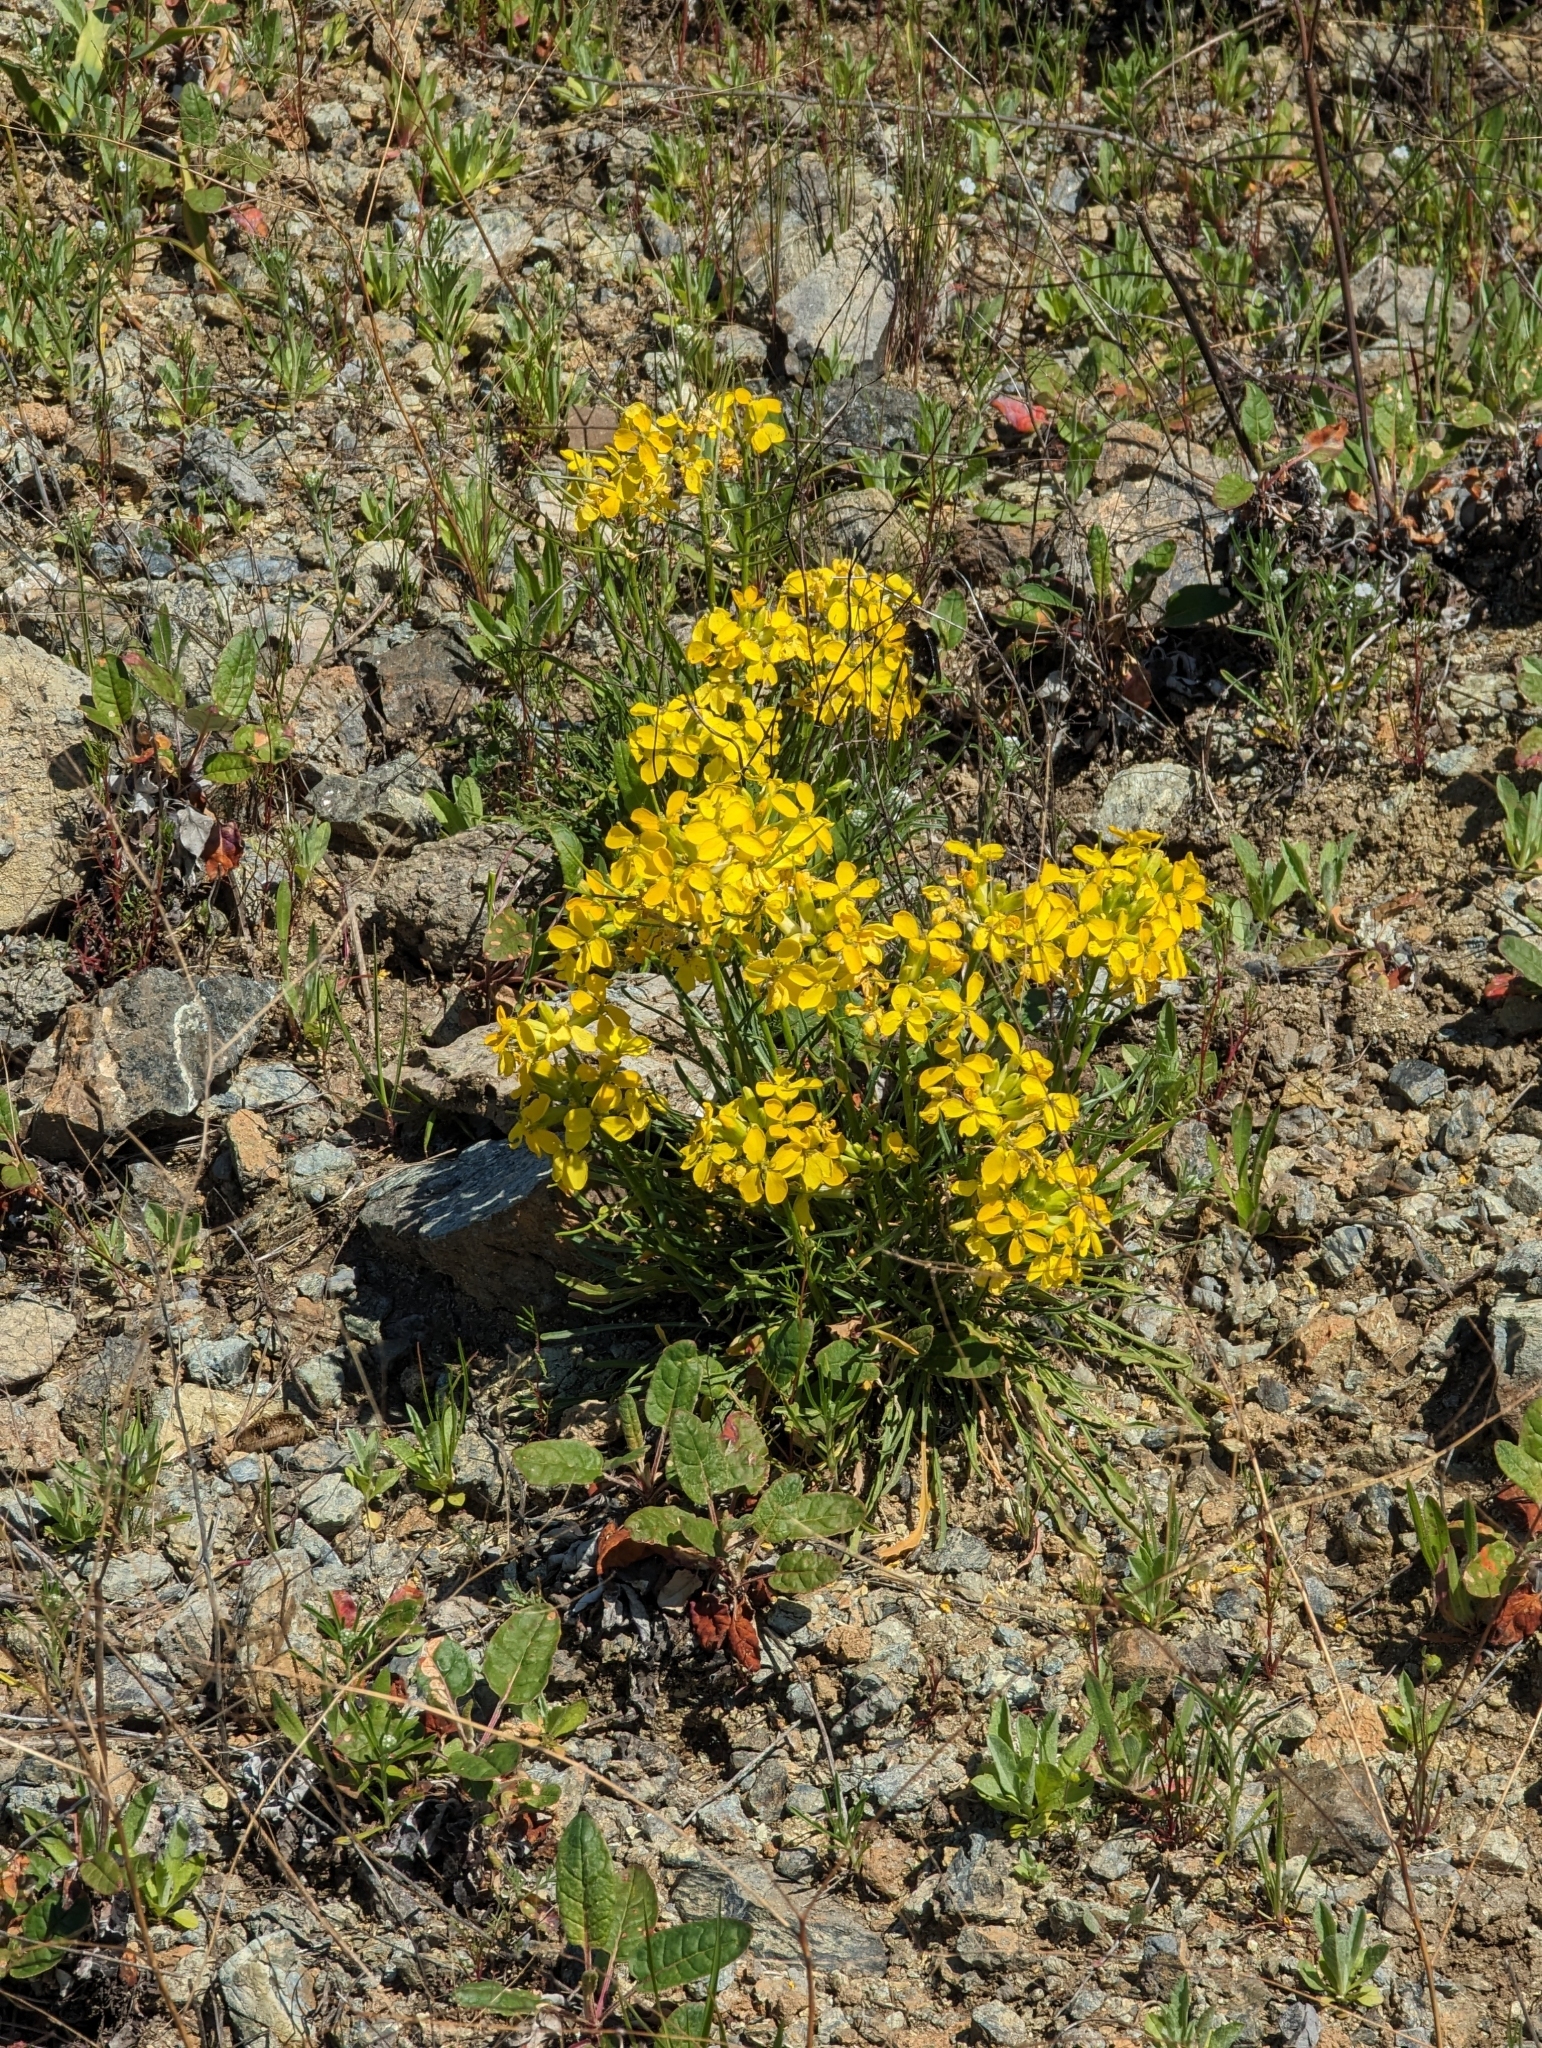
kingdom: Plantae
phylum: Tracheophyta
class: Magnoliopsida
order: Brassicales
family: Brassicaceae
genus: Erysimum
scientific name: Erysimum franciscanum
